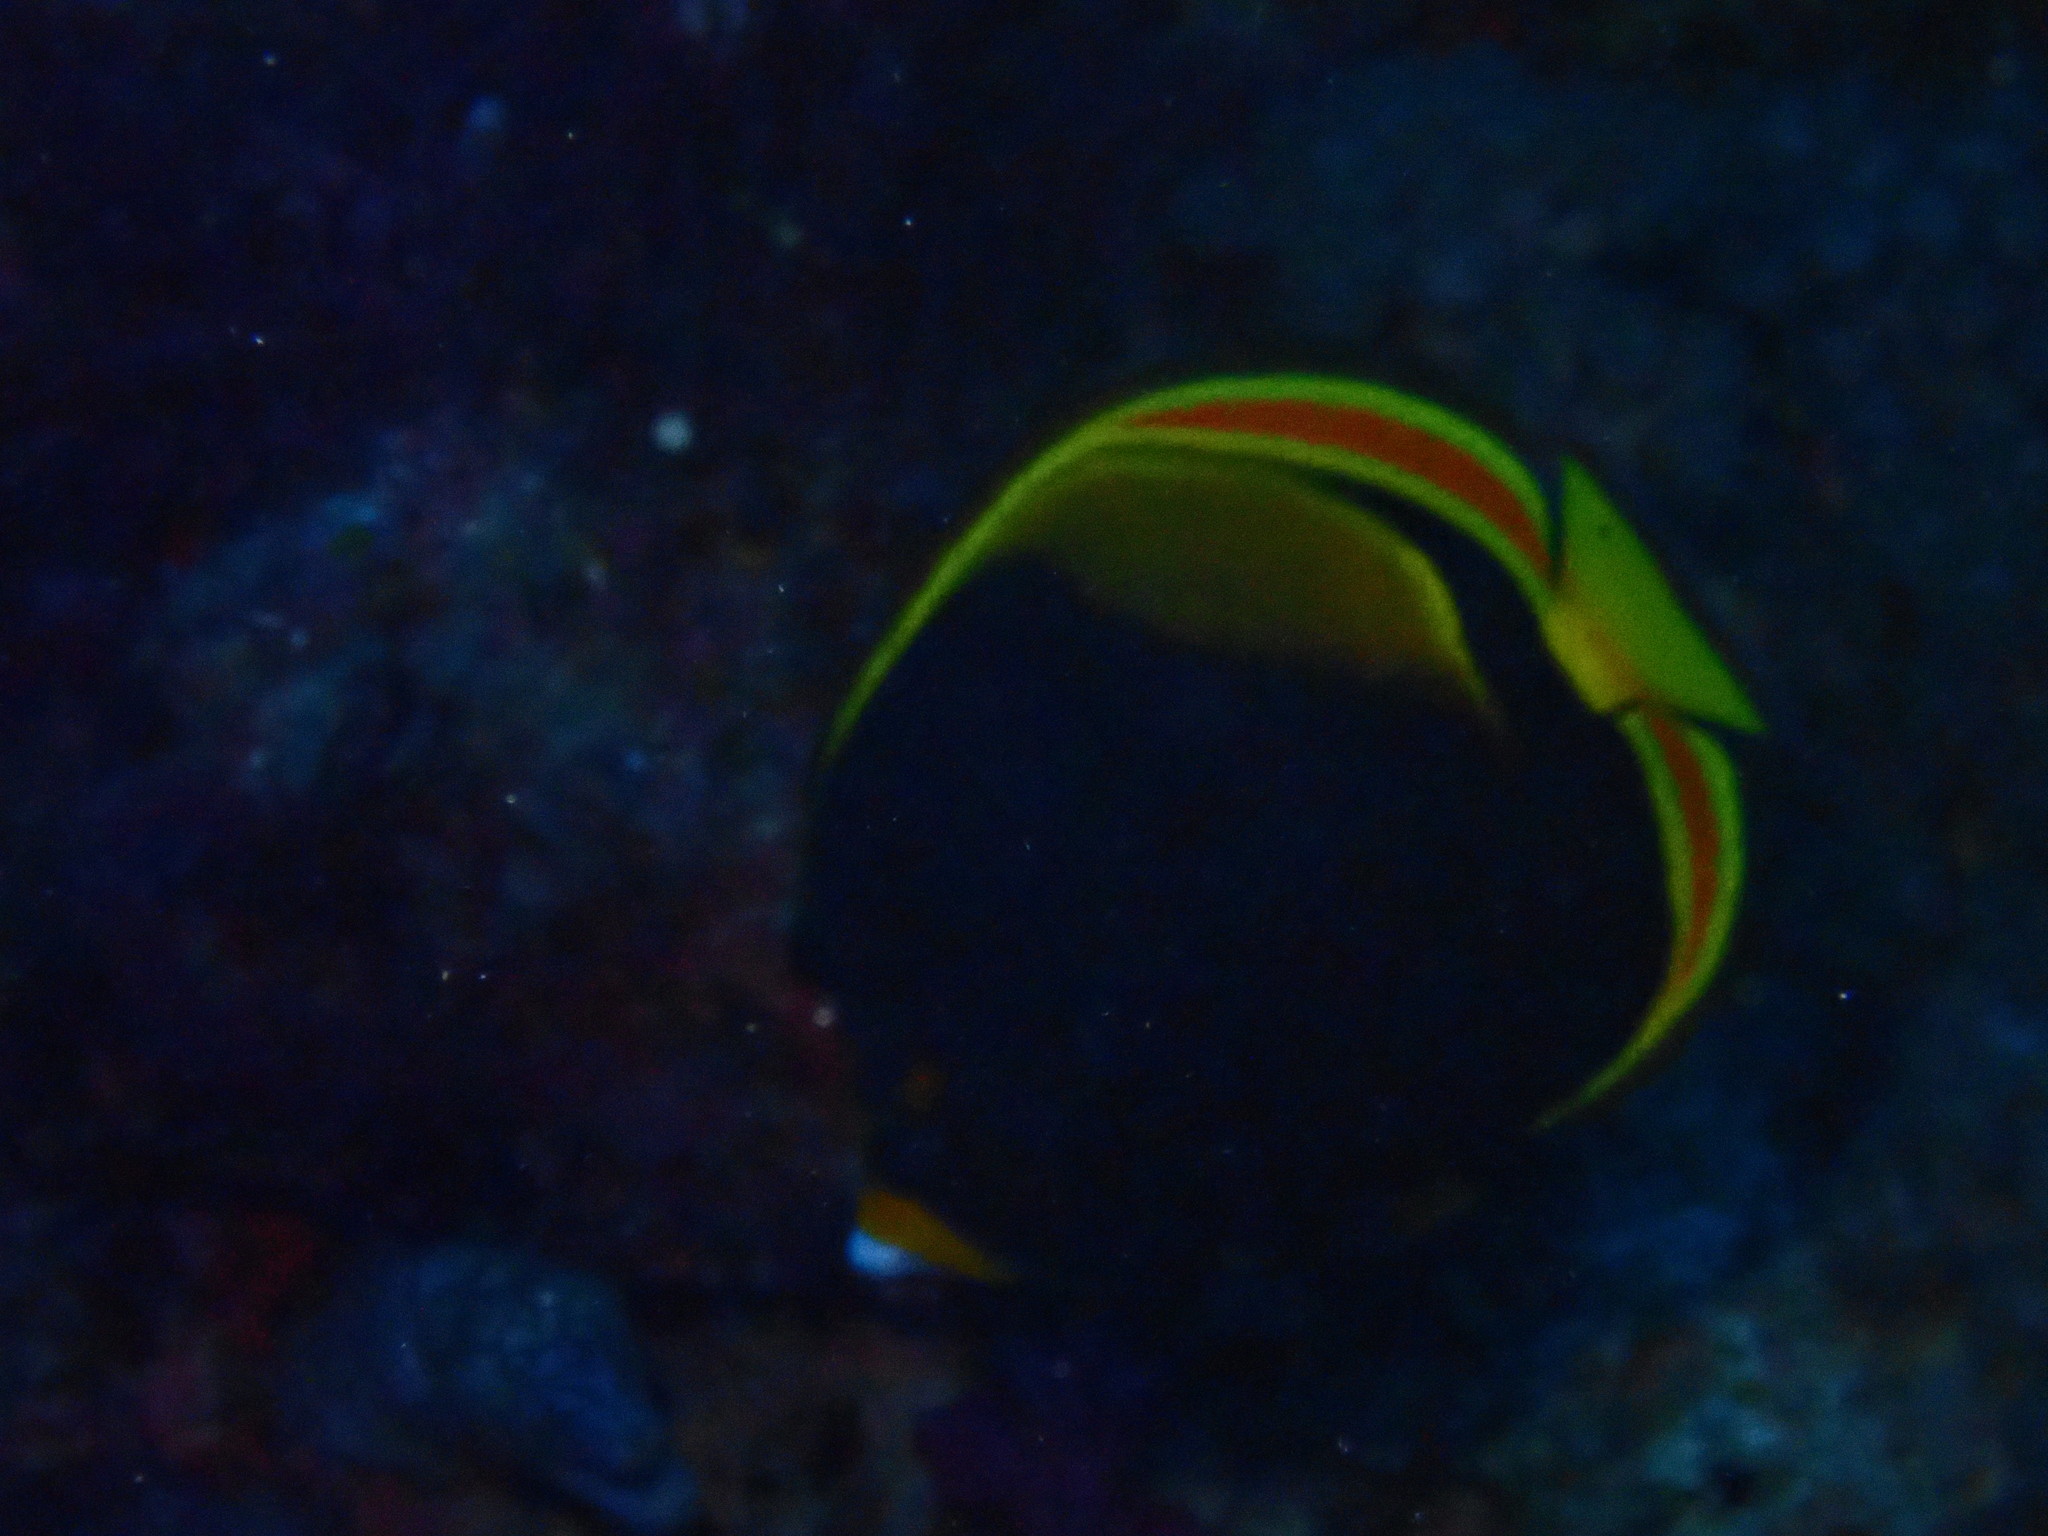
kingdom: Animalia
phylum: Chordata
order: Perciformes
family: Chaetodontidae
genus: Chaetodon
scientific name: Chaetodon flavirostris
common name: Black butterflyfish
